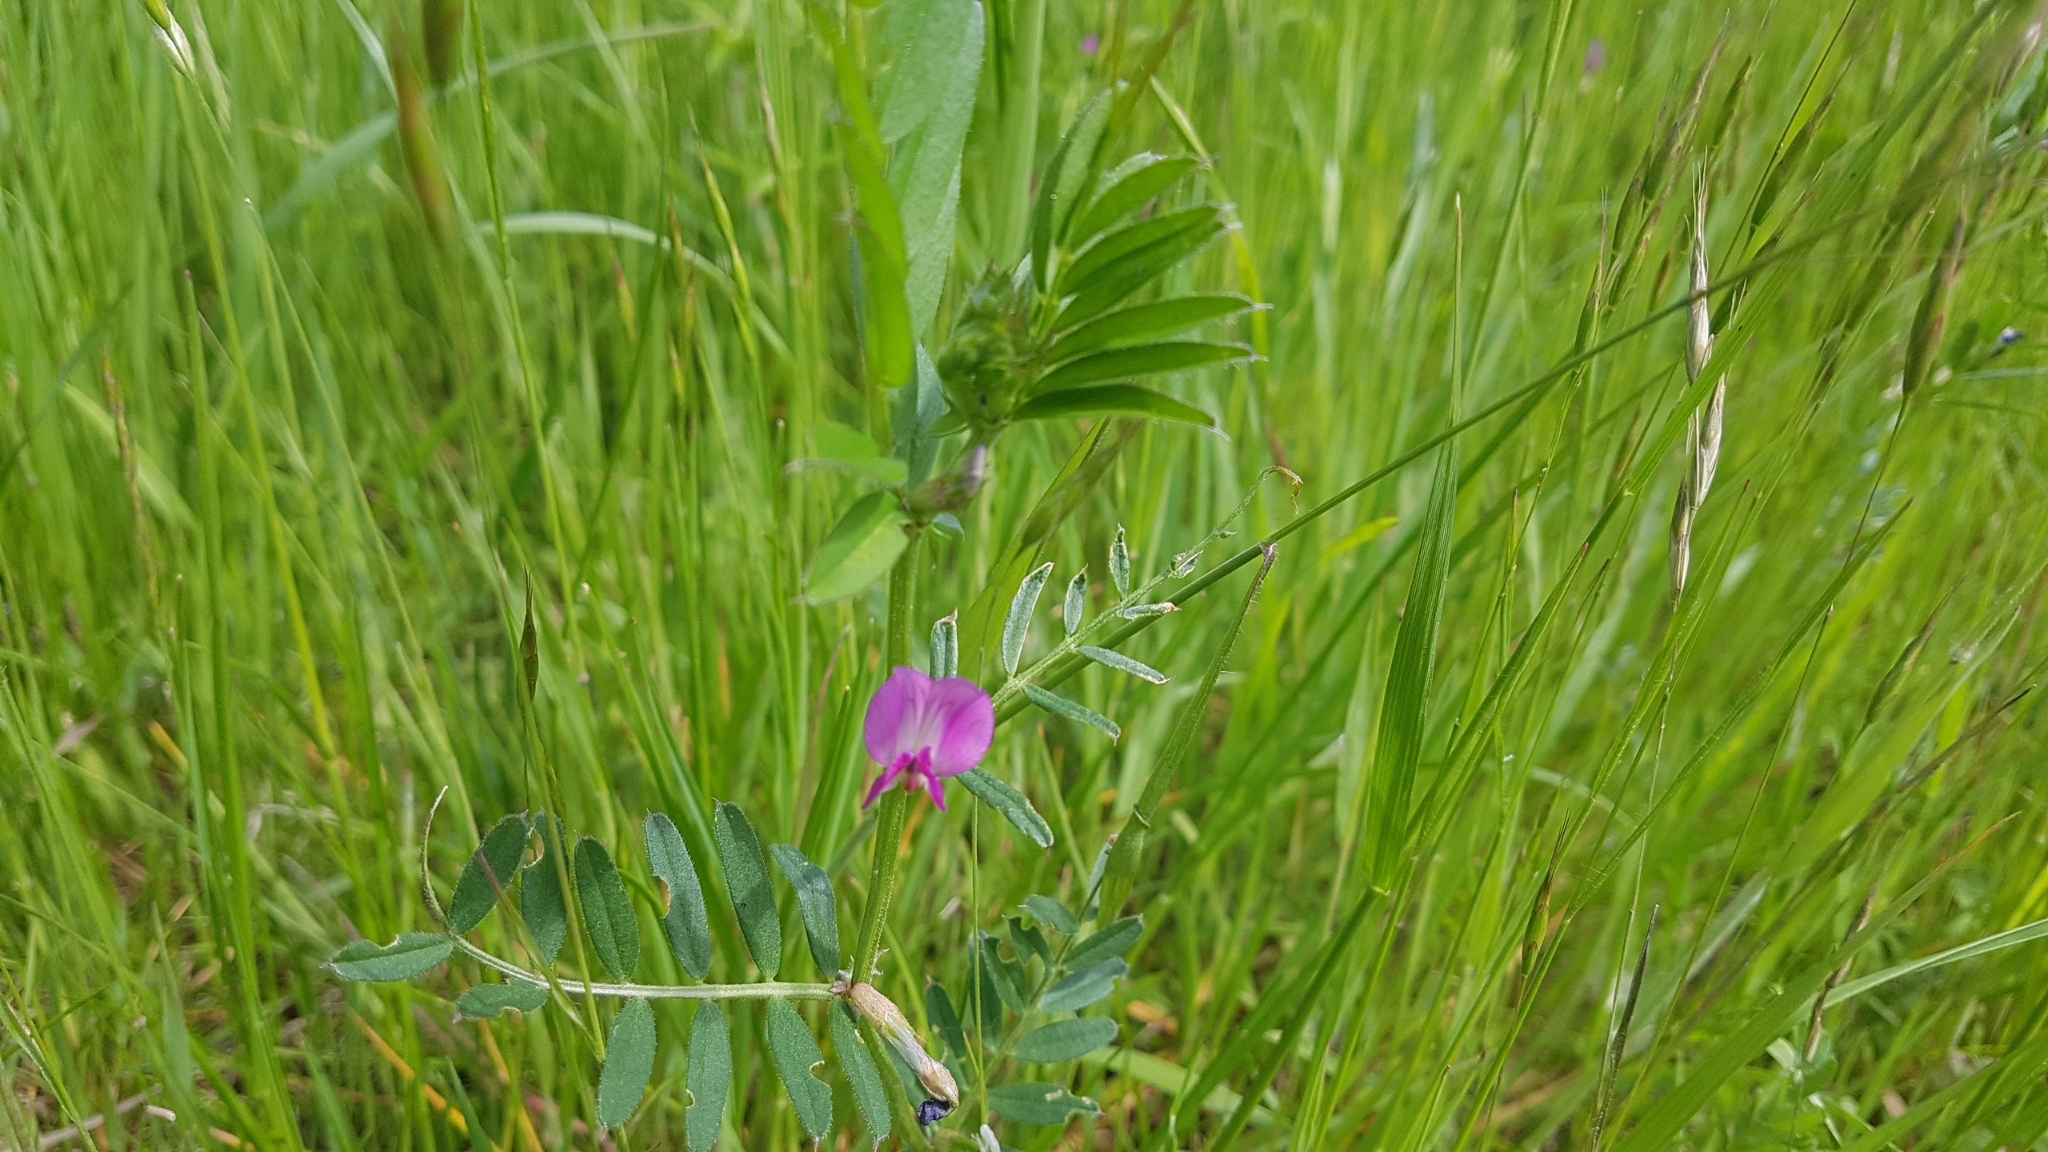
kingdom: Plantae
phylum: Tracheophyta
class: Magnoliopsida
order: Fabales
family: Fabaceae
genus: Vicia
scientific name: Vicia sativa
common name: Garden vetch
